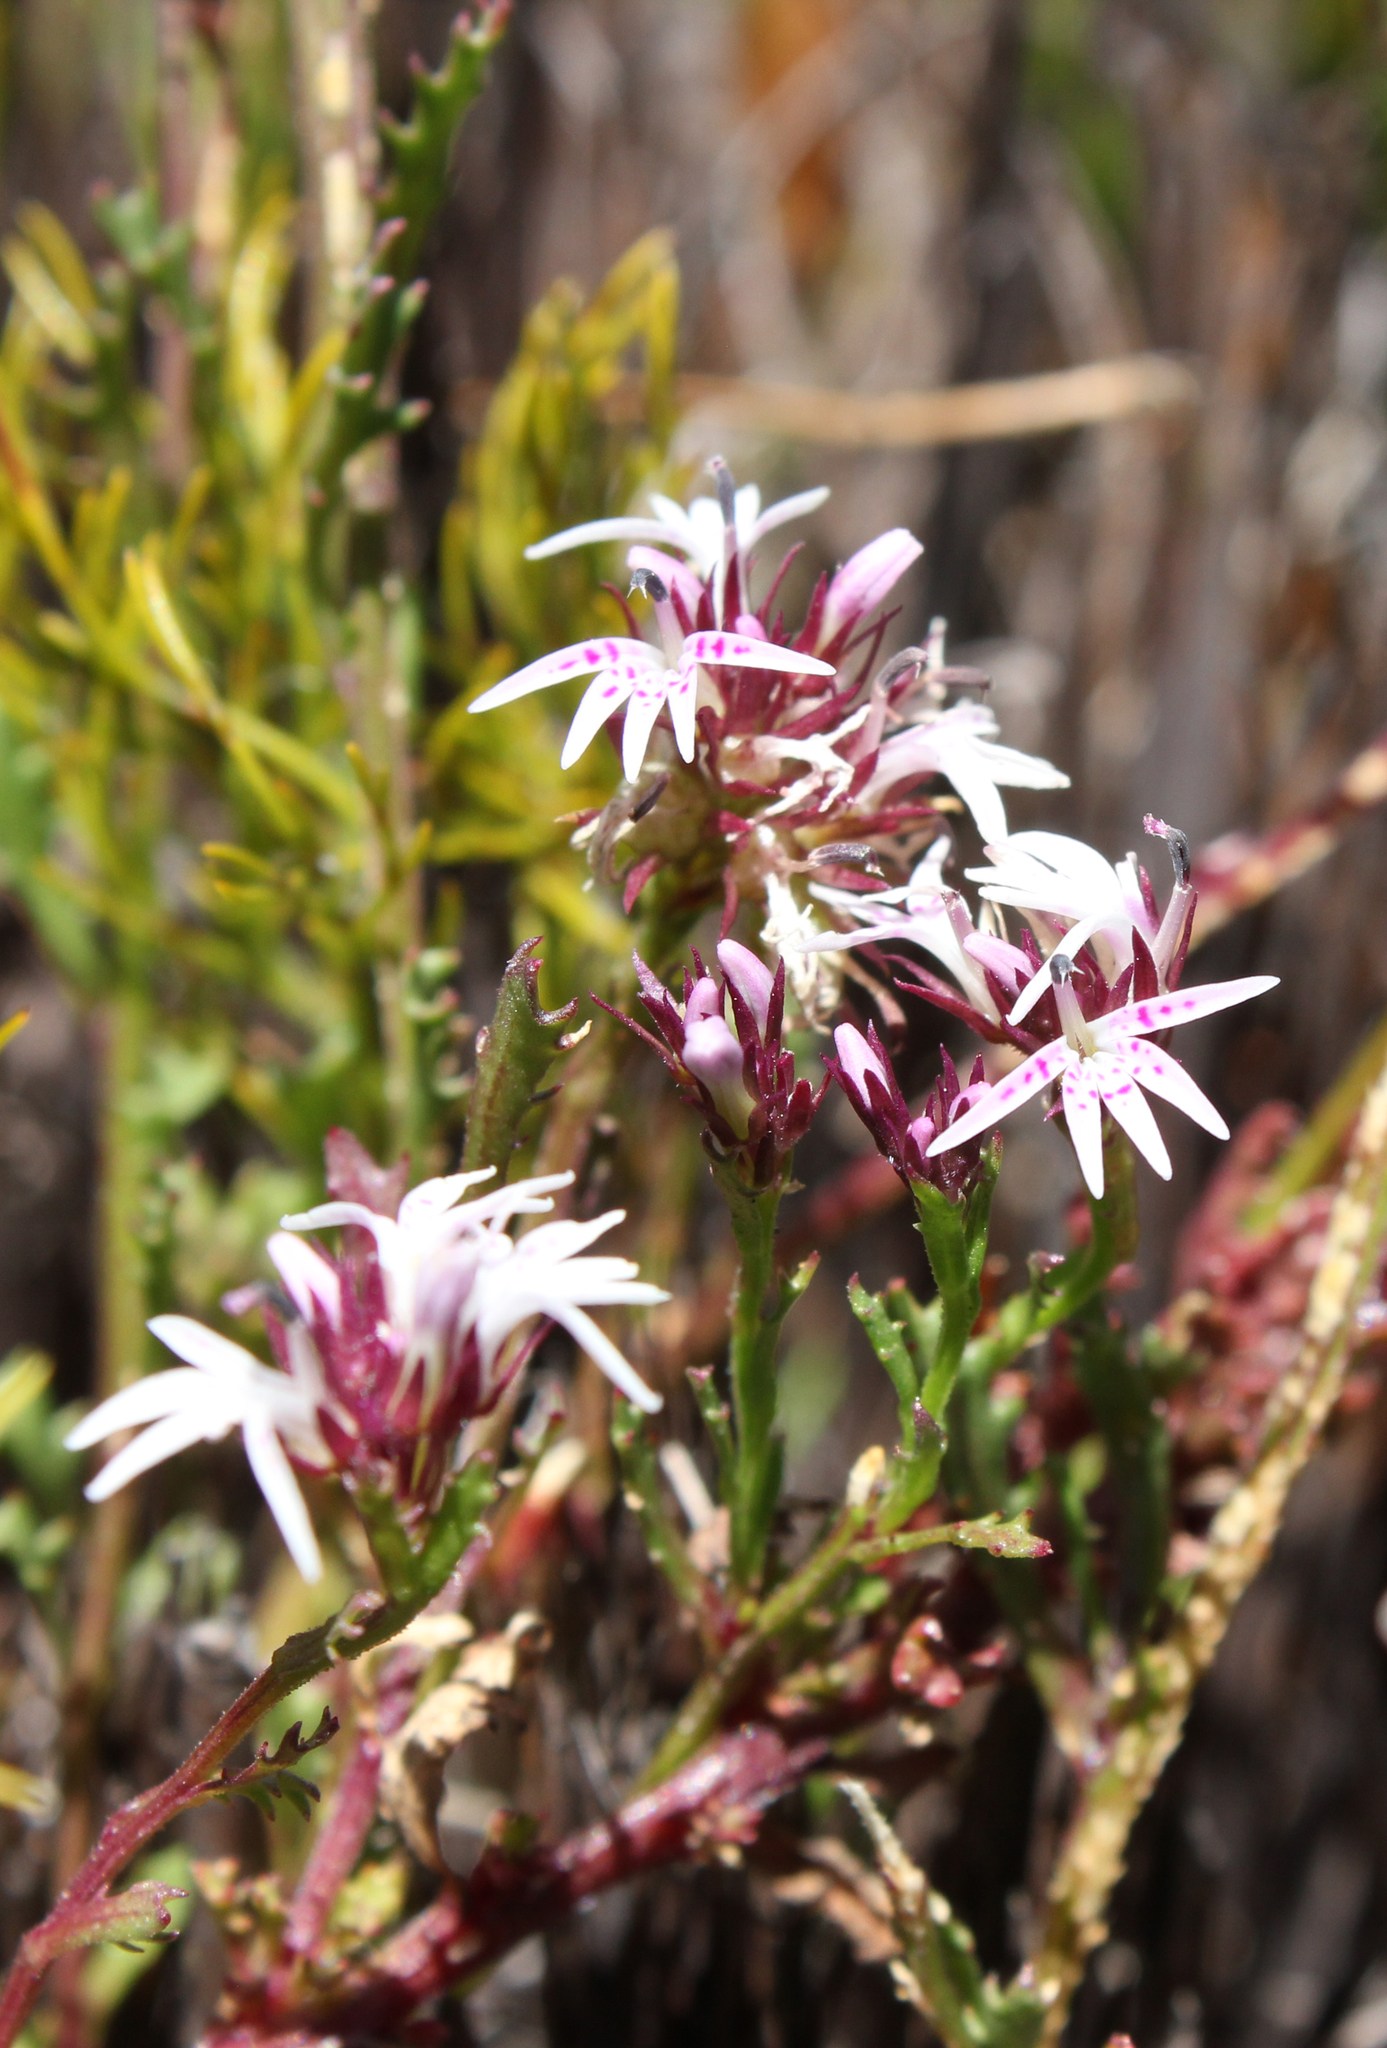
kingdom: Plantae
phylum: Tracheophyta
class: Magnoliopsida
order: Asterales
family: Campanulaceae
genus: Lobelia
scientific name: Lobelia jasionoides
